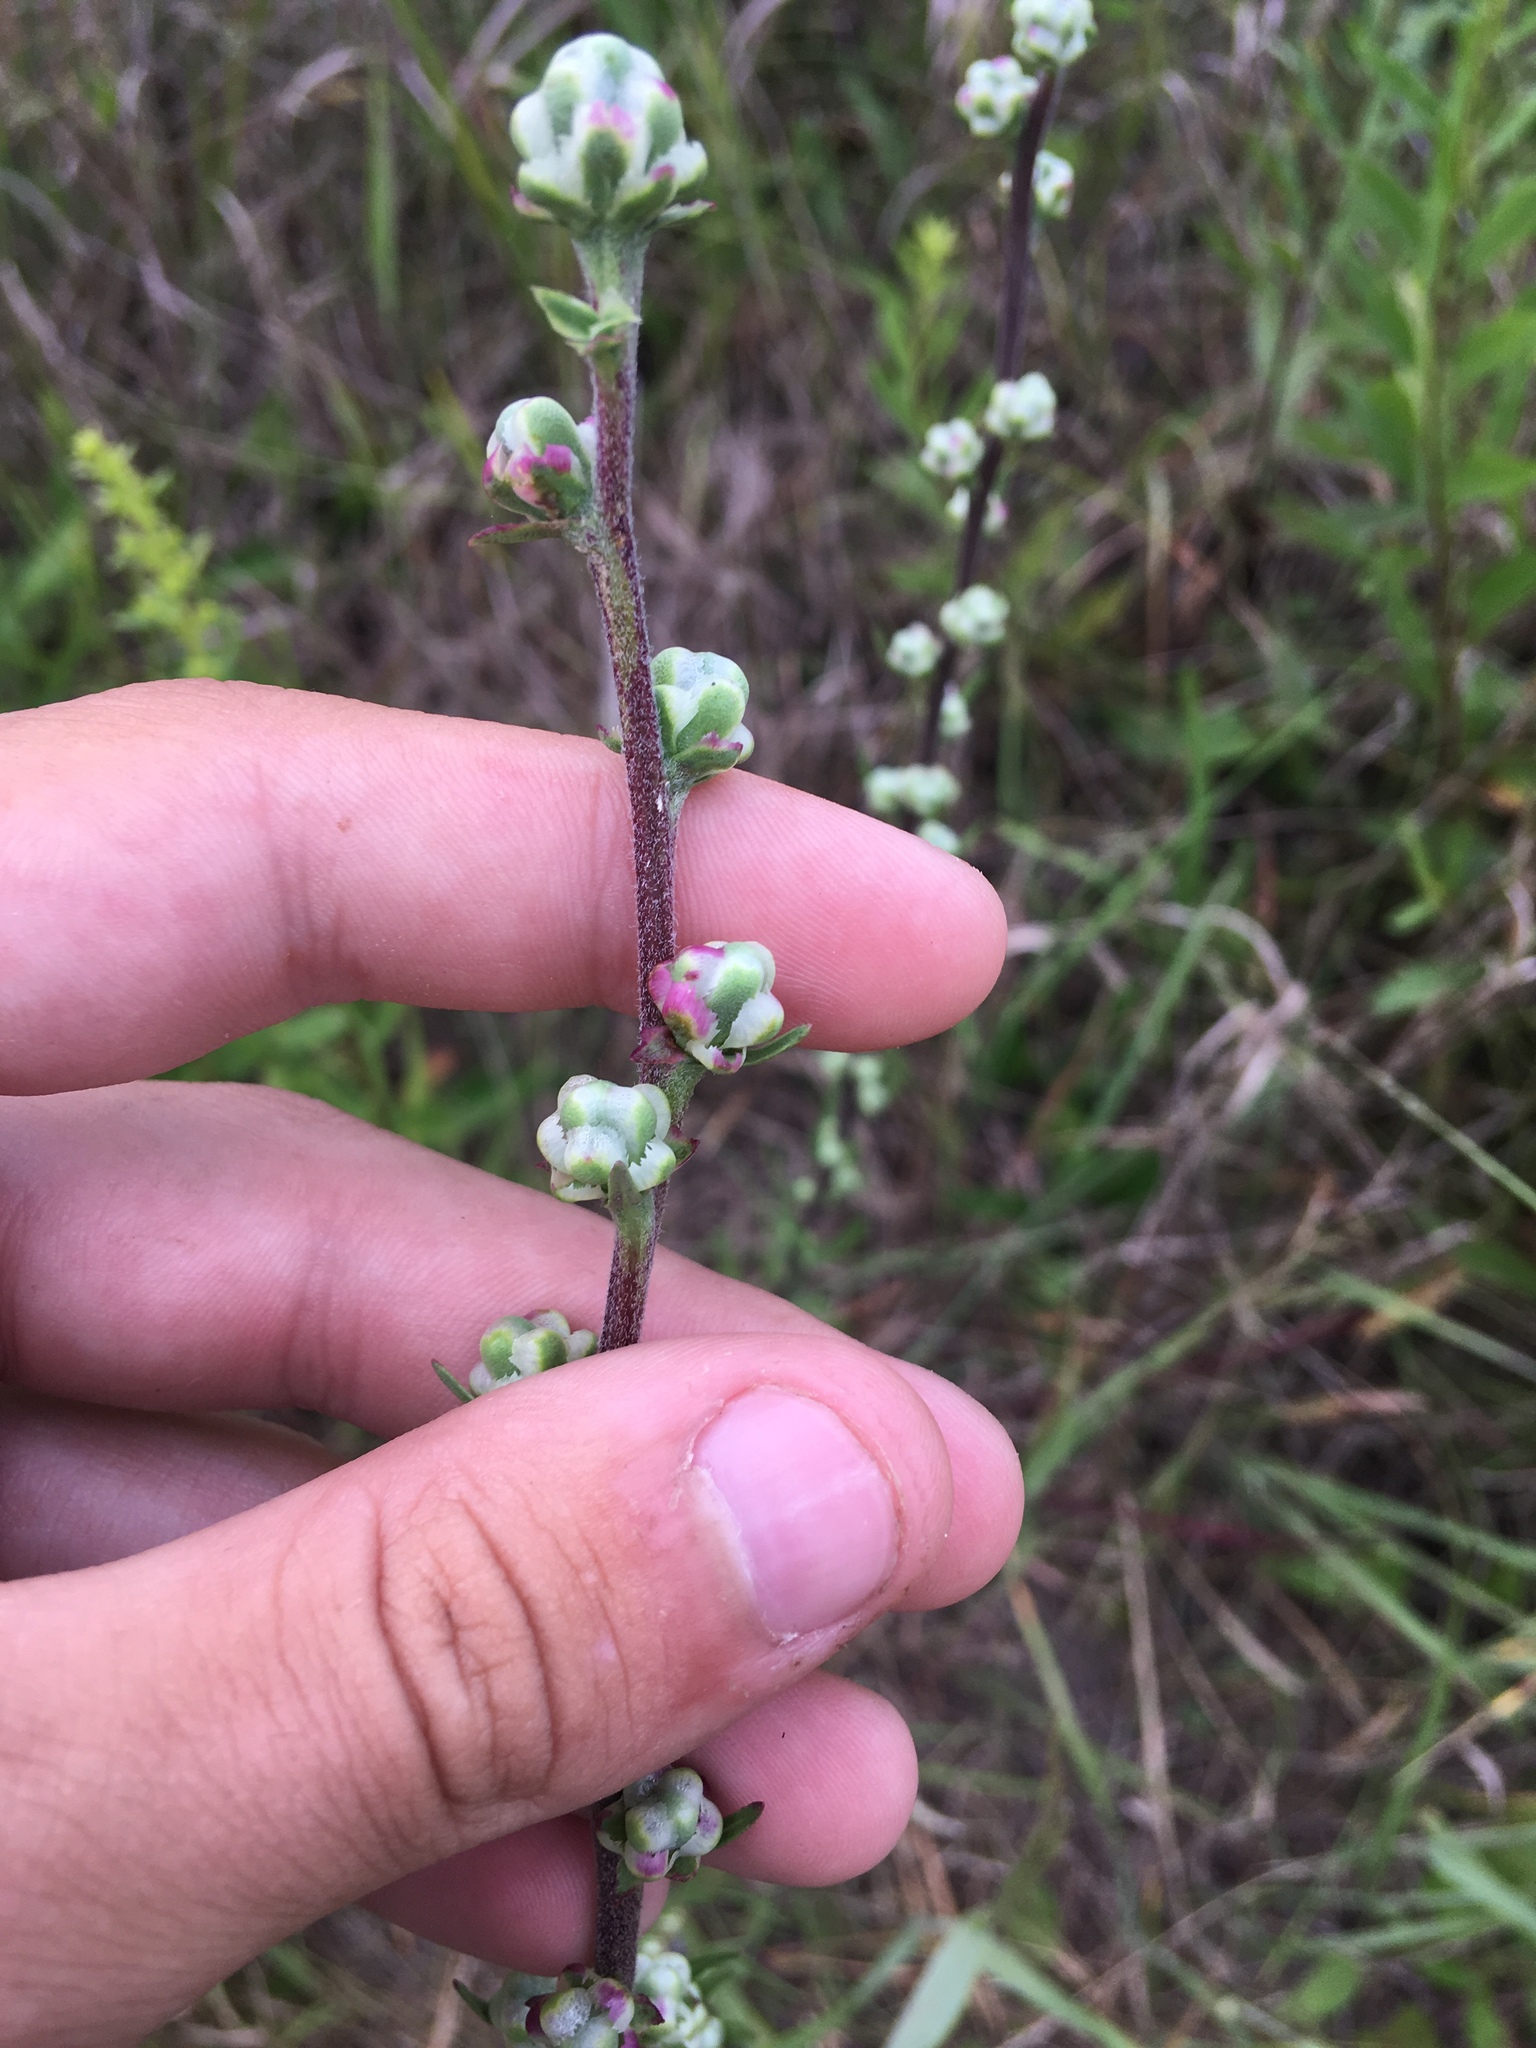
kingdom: Plantae
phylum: Tracheophyta
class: Magnoliopsida
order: Asterales
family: Asteraceae
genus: Liatris
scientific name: Liatris aspera
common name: Lacerate blazing-star
